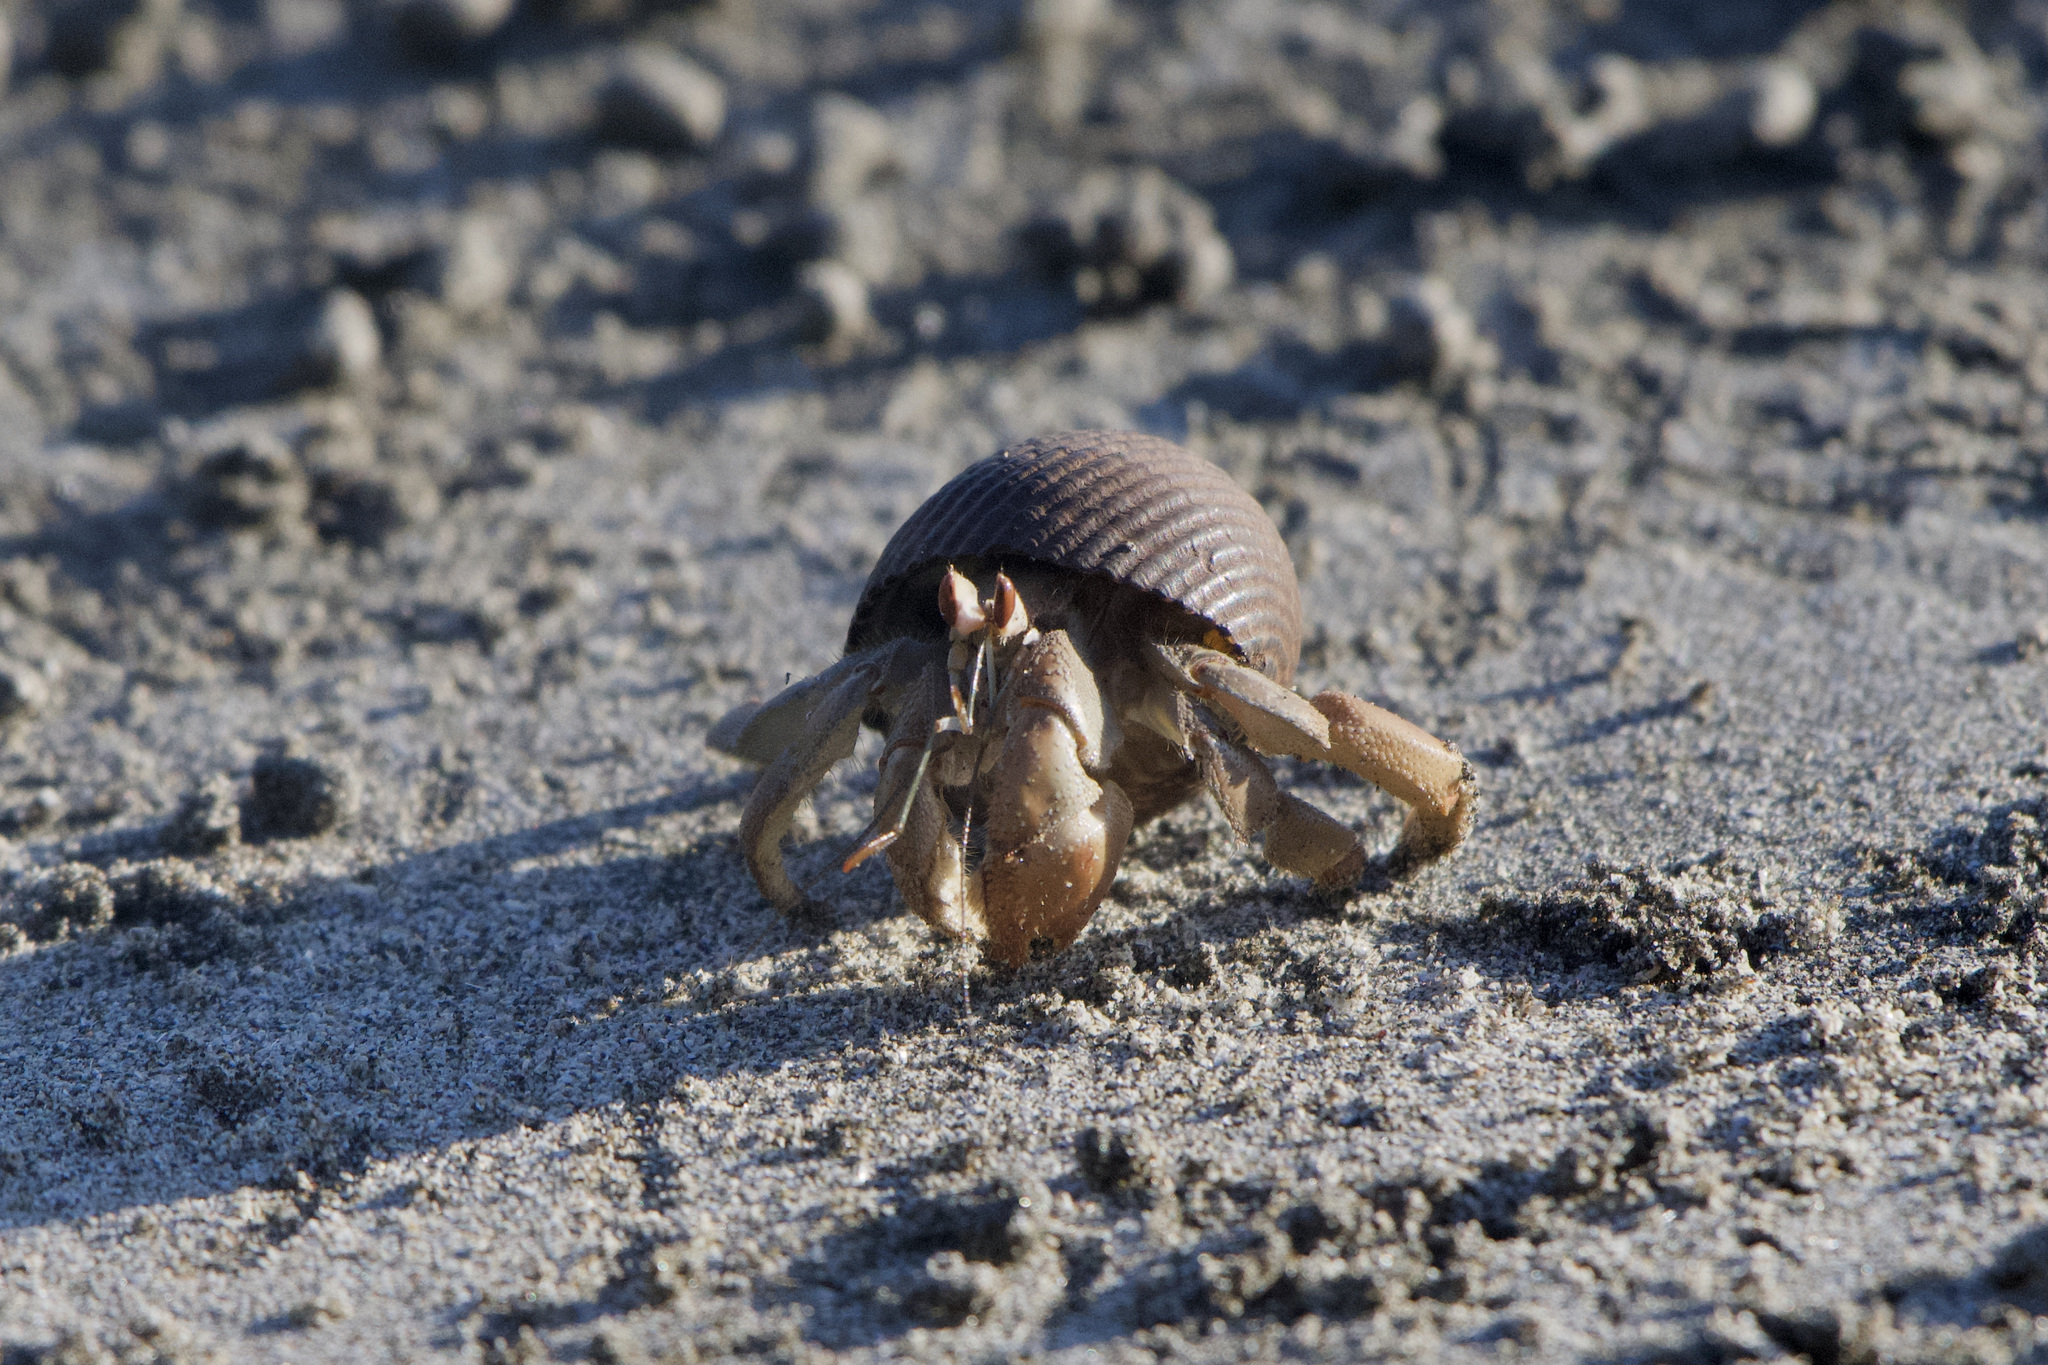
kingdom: Animalia
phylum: Arthropoda
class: Malacostraca
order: Decapoda
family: Coenobitidae
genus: Coenobita
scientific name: Coenobita compressus
